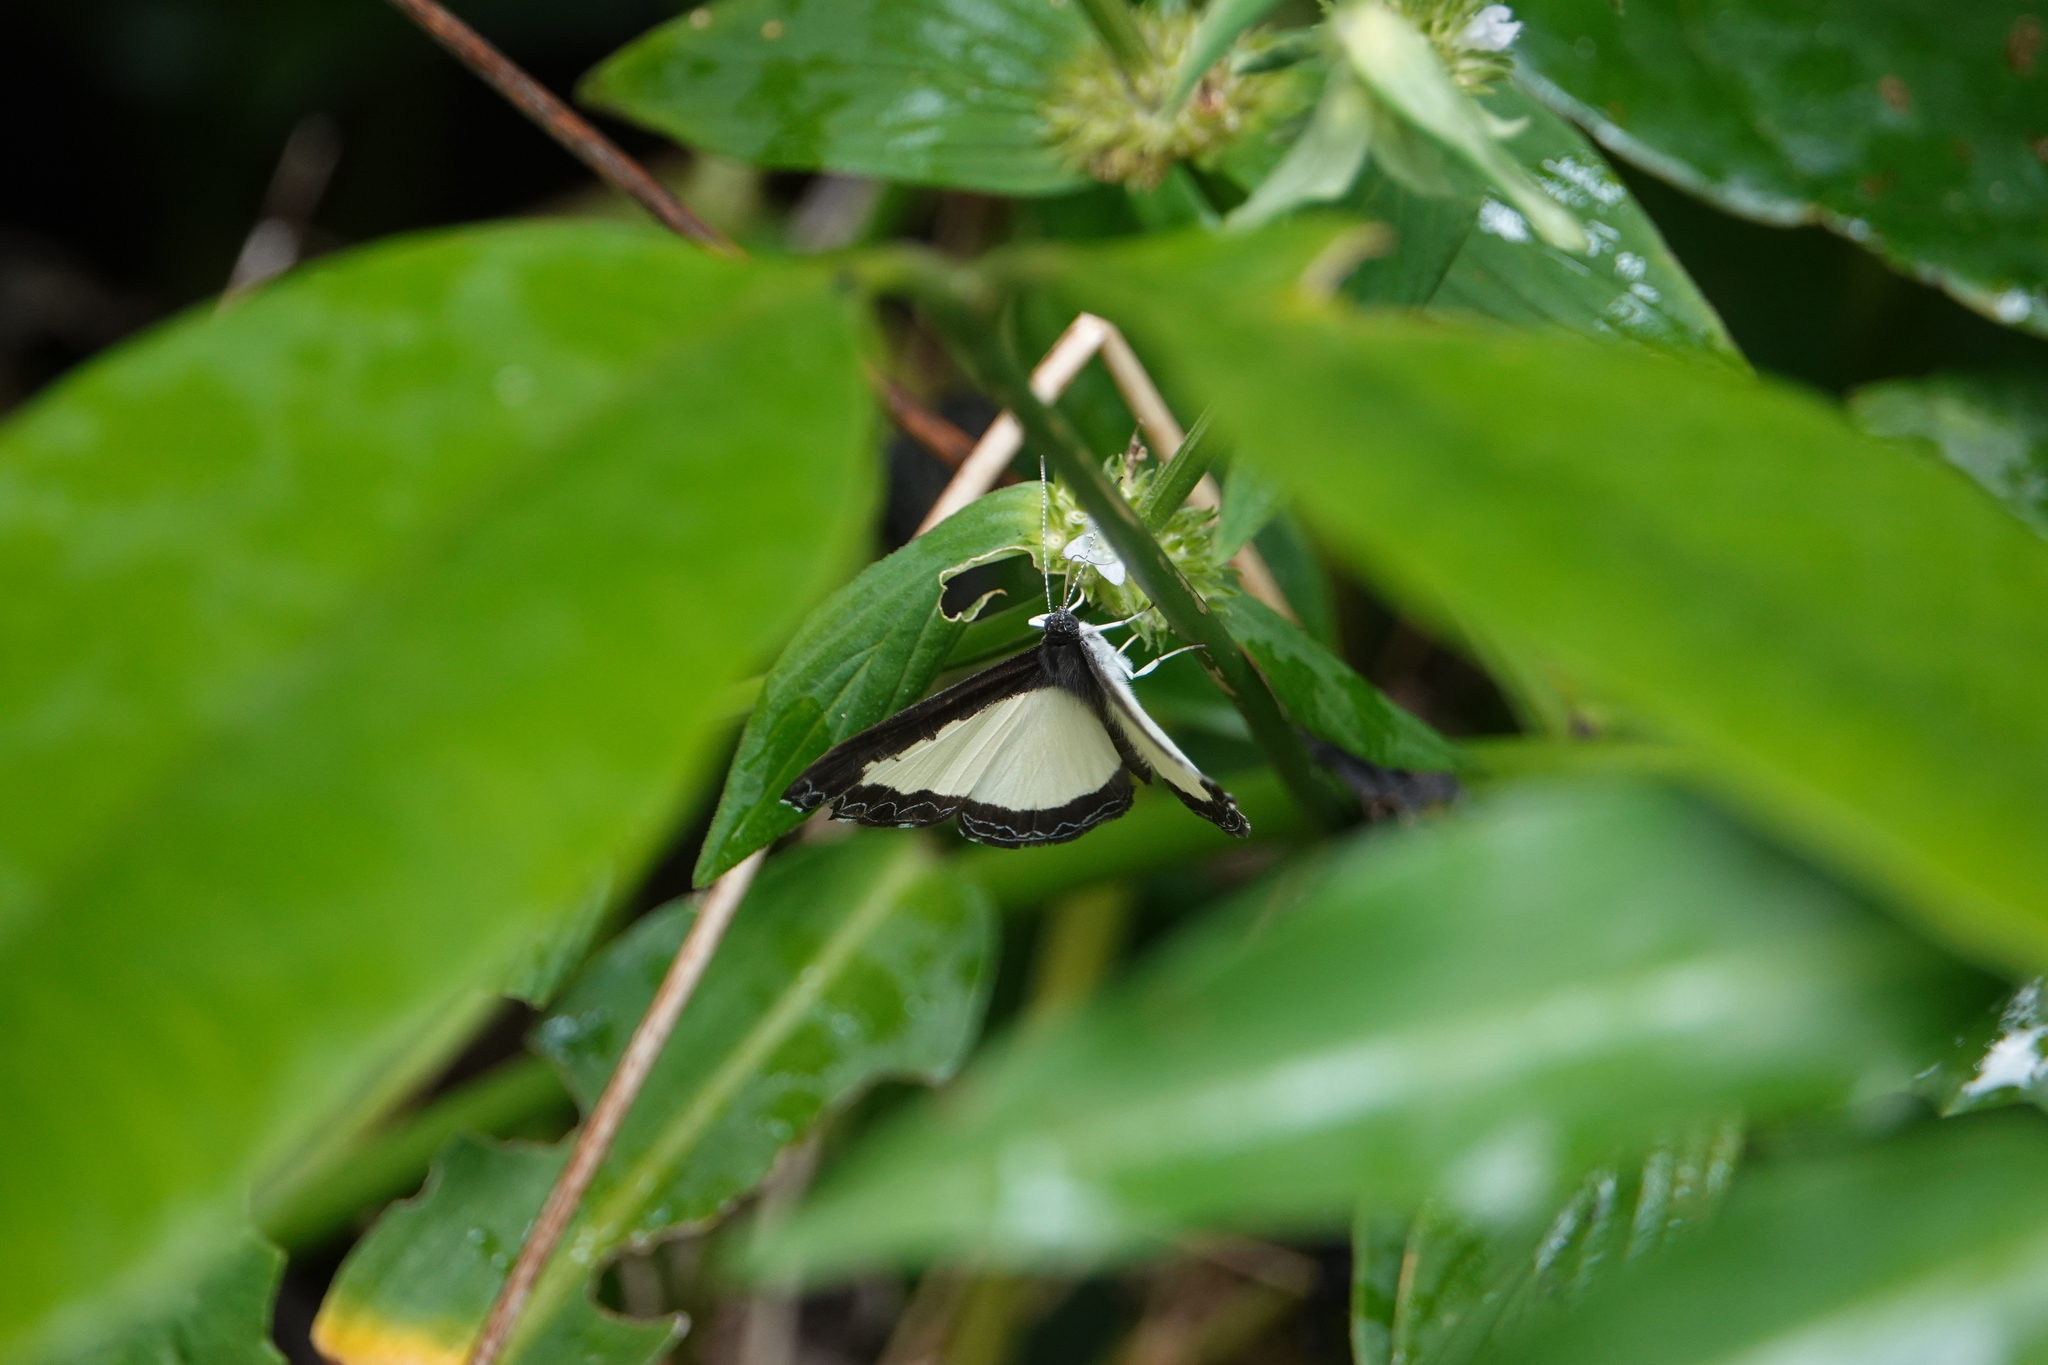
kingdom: Animalia
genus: Nymphidium
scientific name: Nymphidium cachrus
